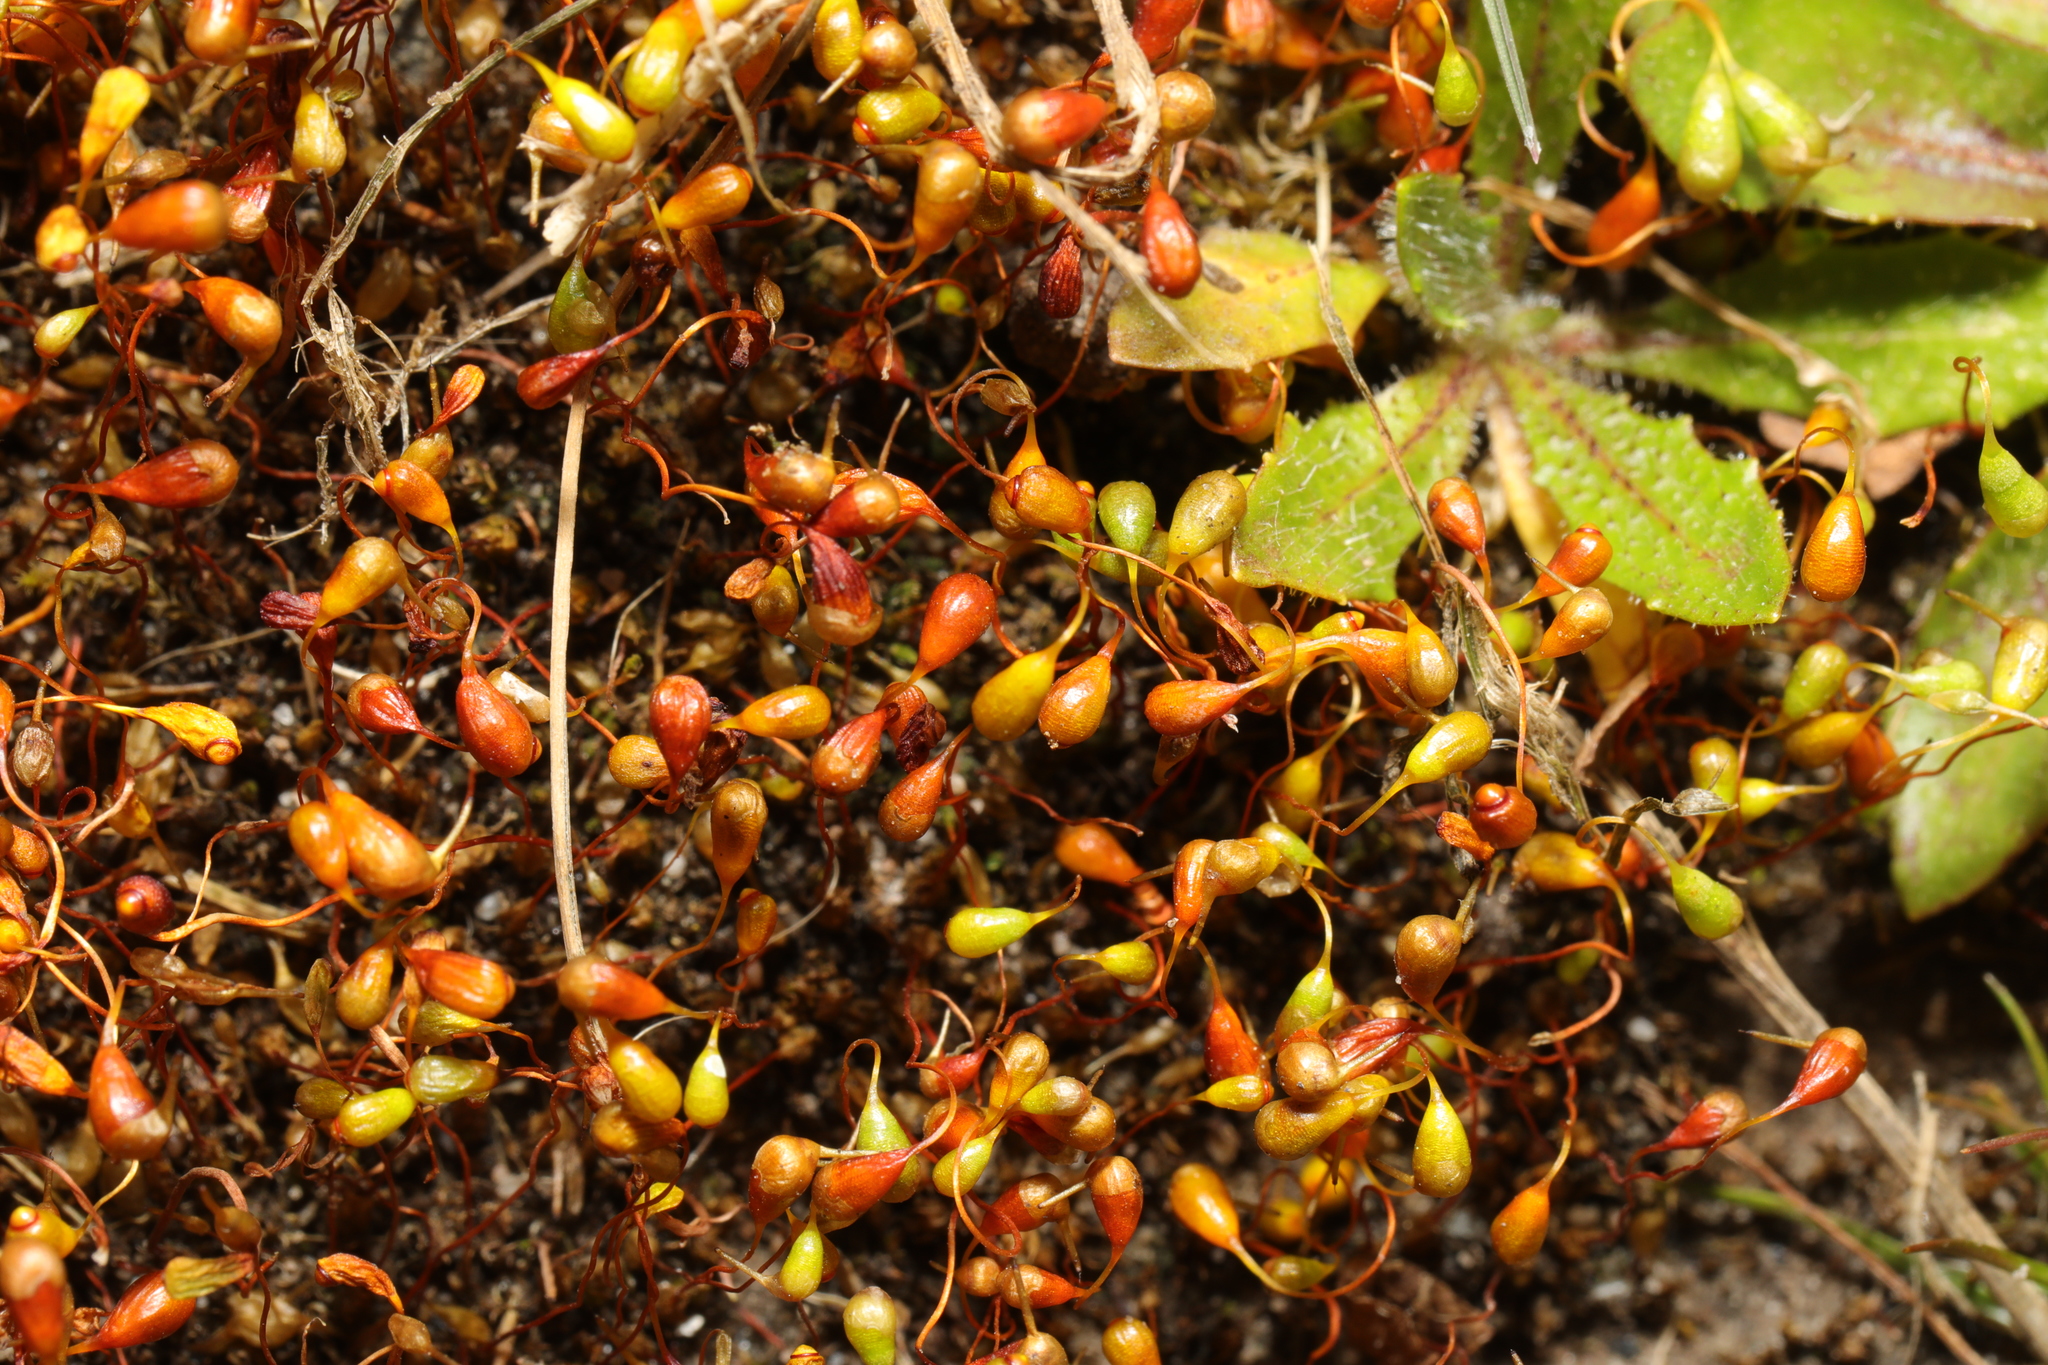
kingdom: Plantae
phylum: Bryophyta
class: Bryopsida
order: Funariales
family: Funariaceae
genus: Funaria
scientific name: Funaria hygrometrica
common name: Common cord moss
